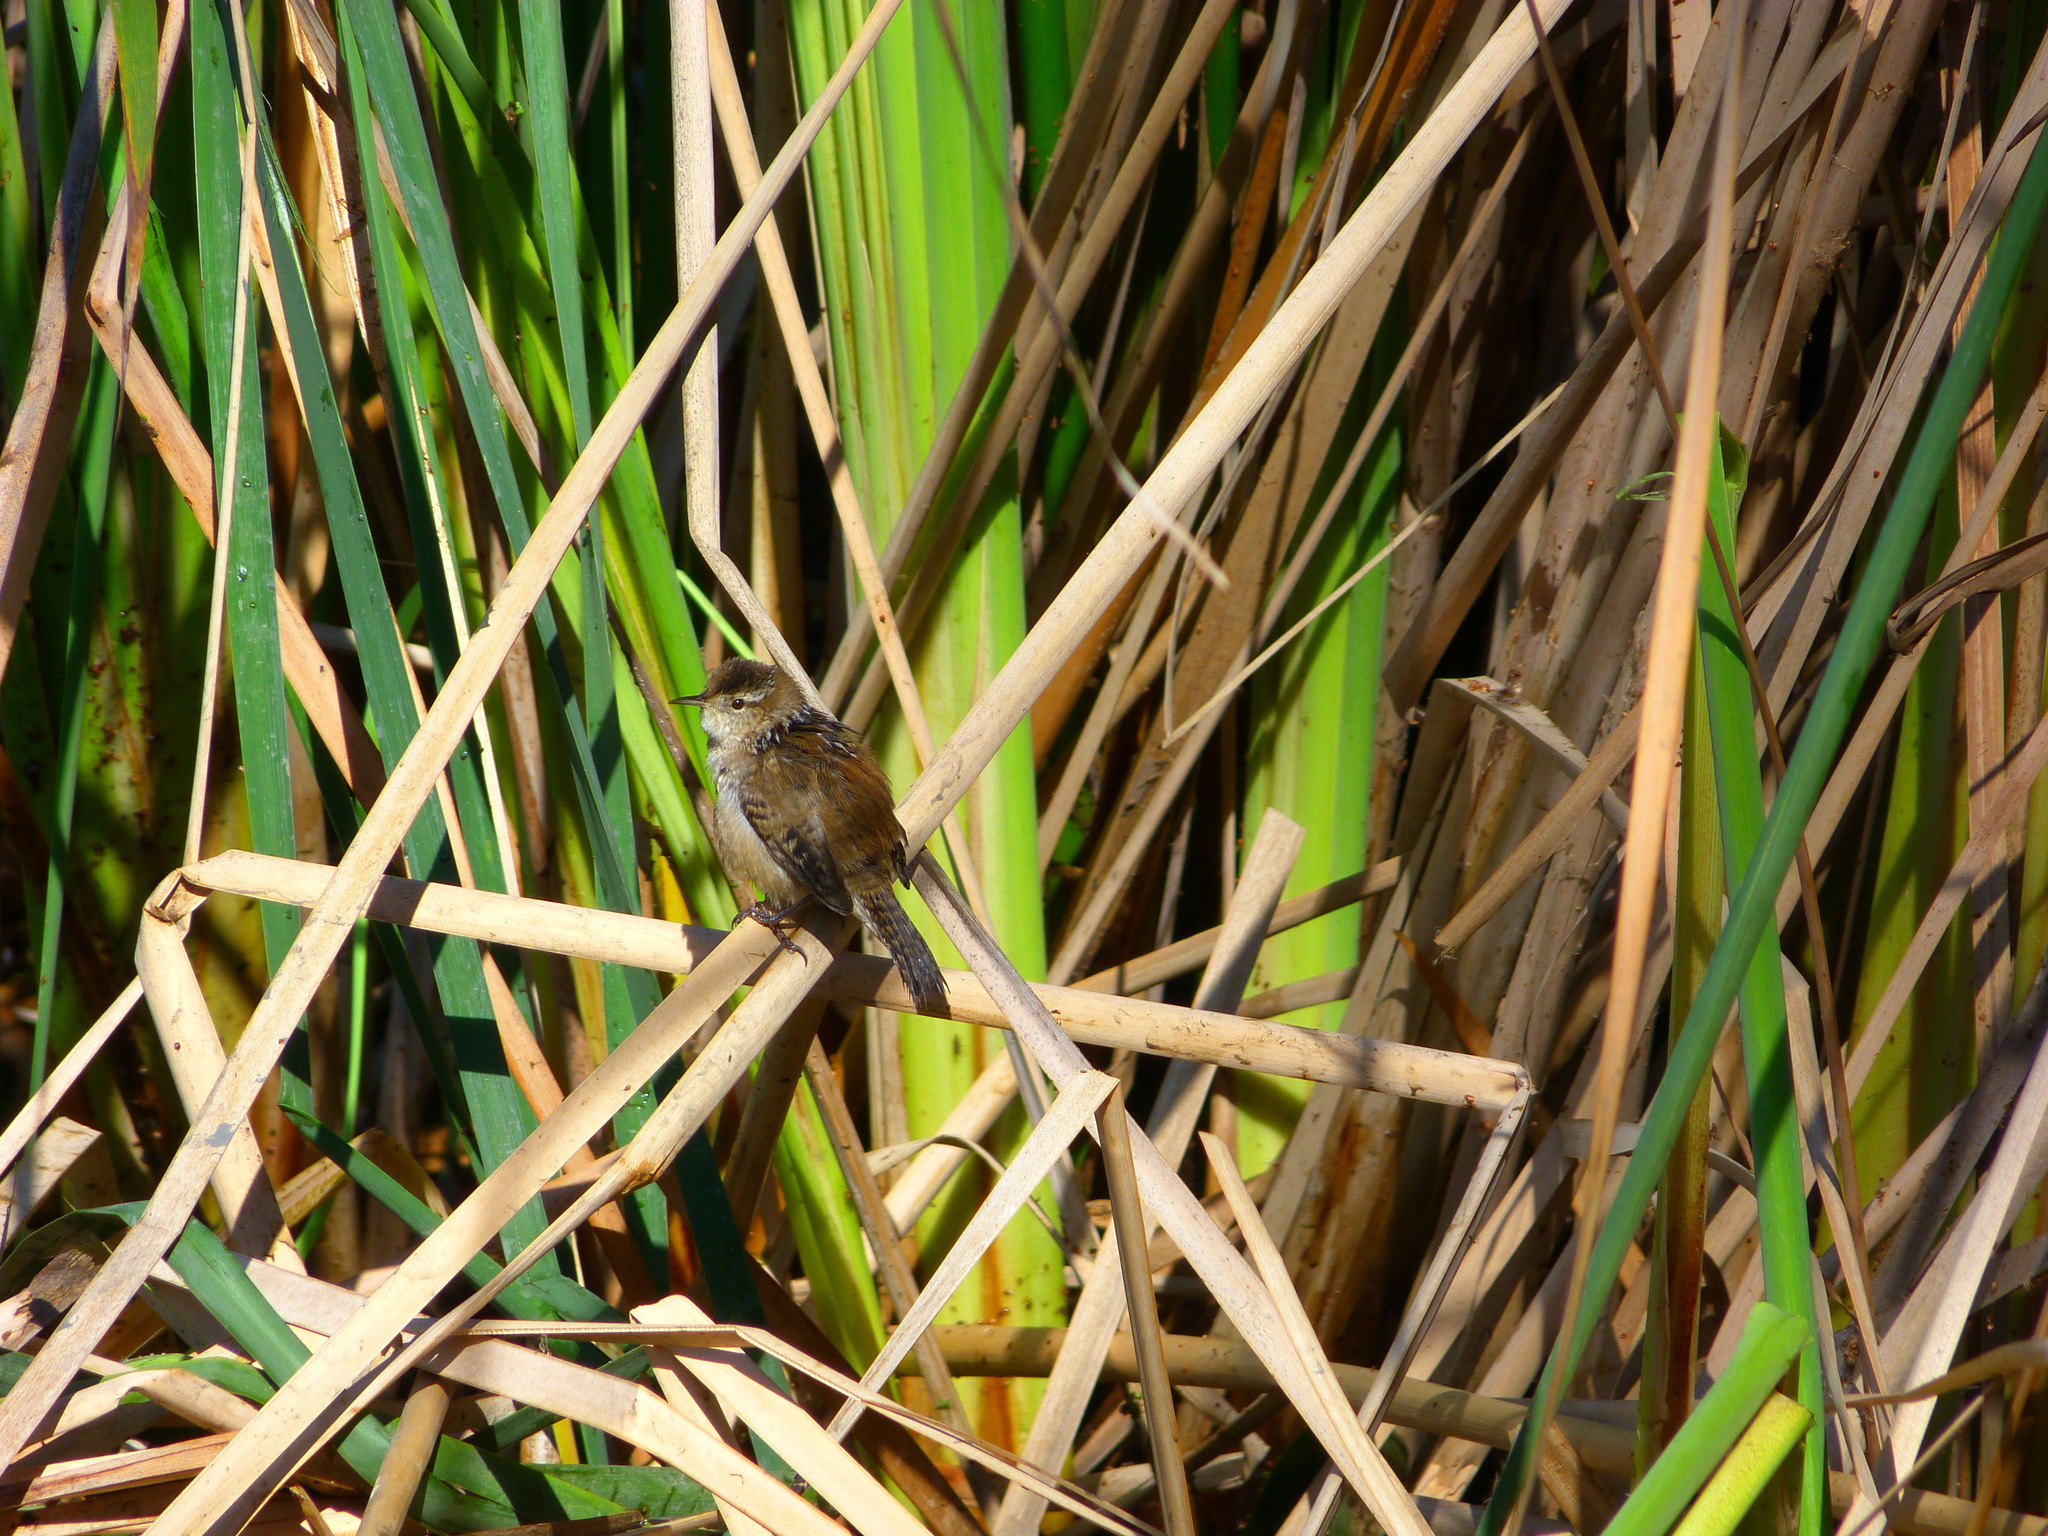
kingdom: Animalia
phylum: Chordata
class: Aves
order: Passeriformes
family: Troglodytidae
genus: Cistothorus
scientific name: Cistothorus palustris
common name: Marsh wren
